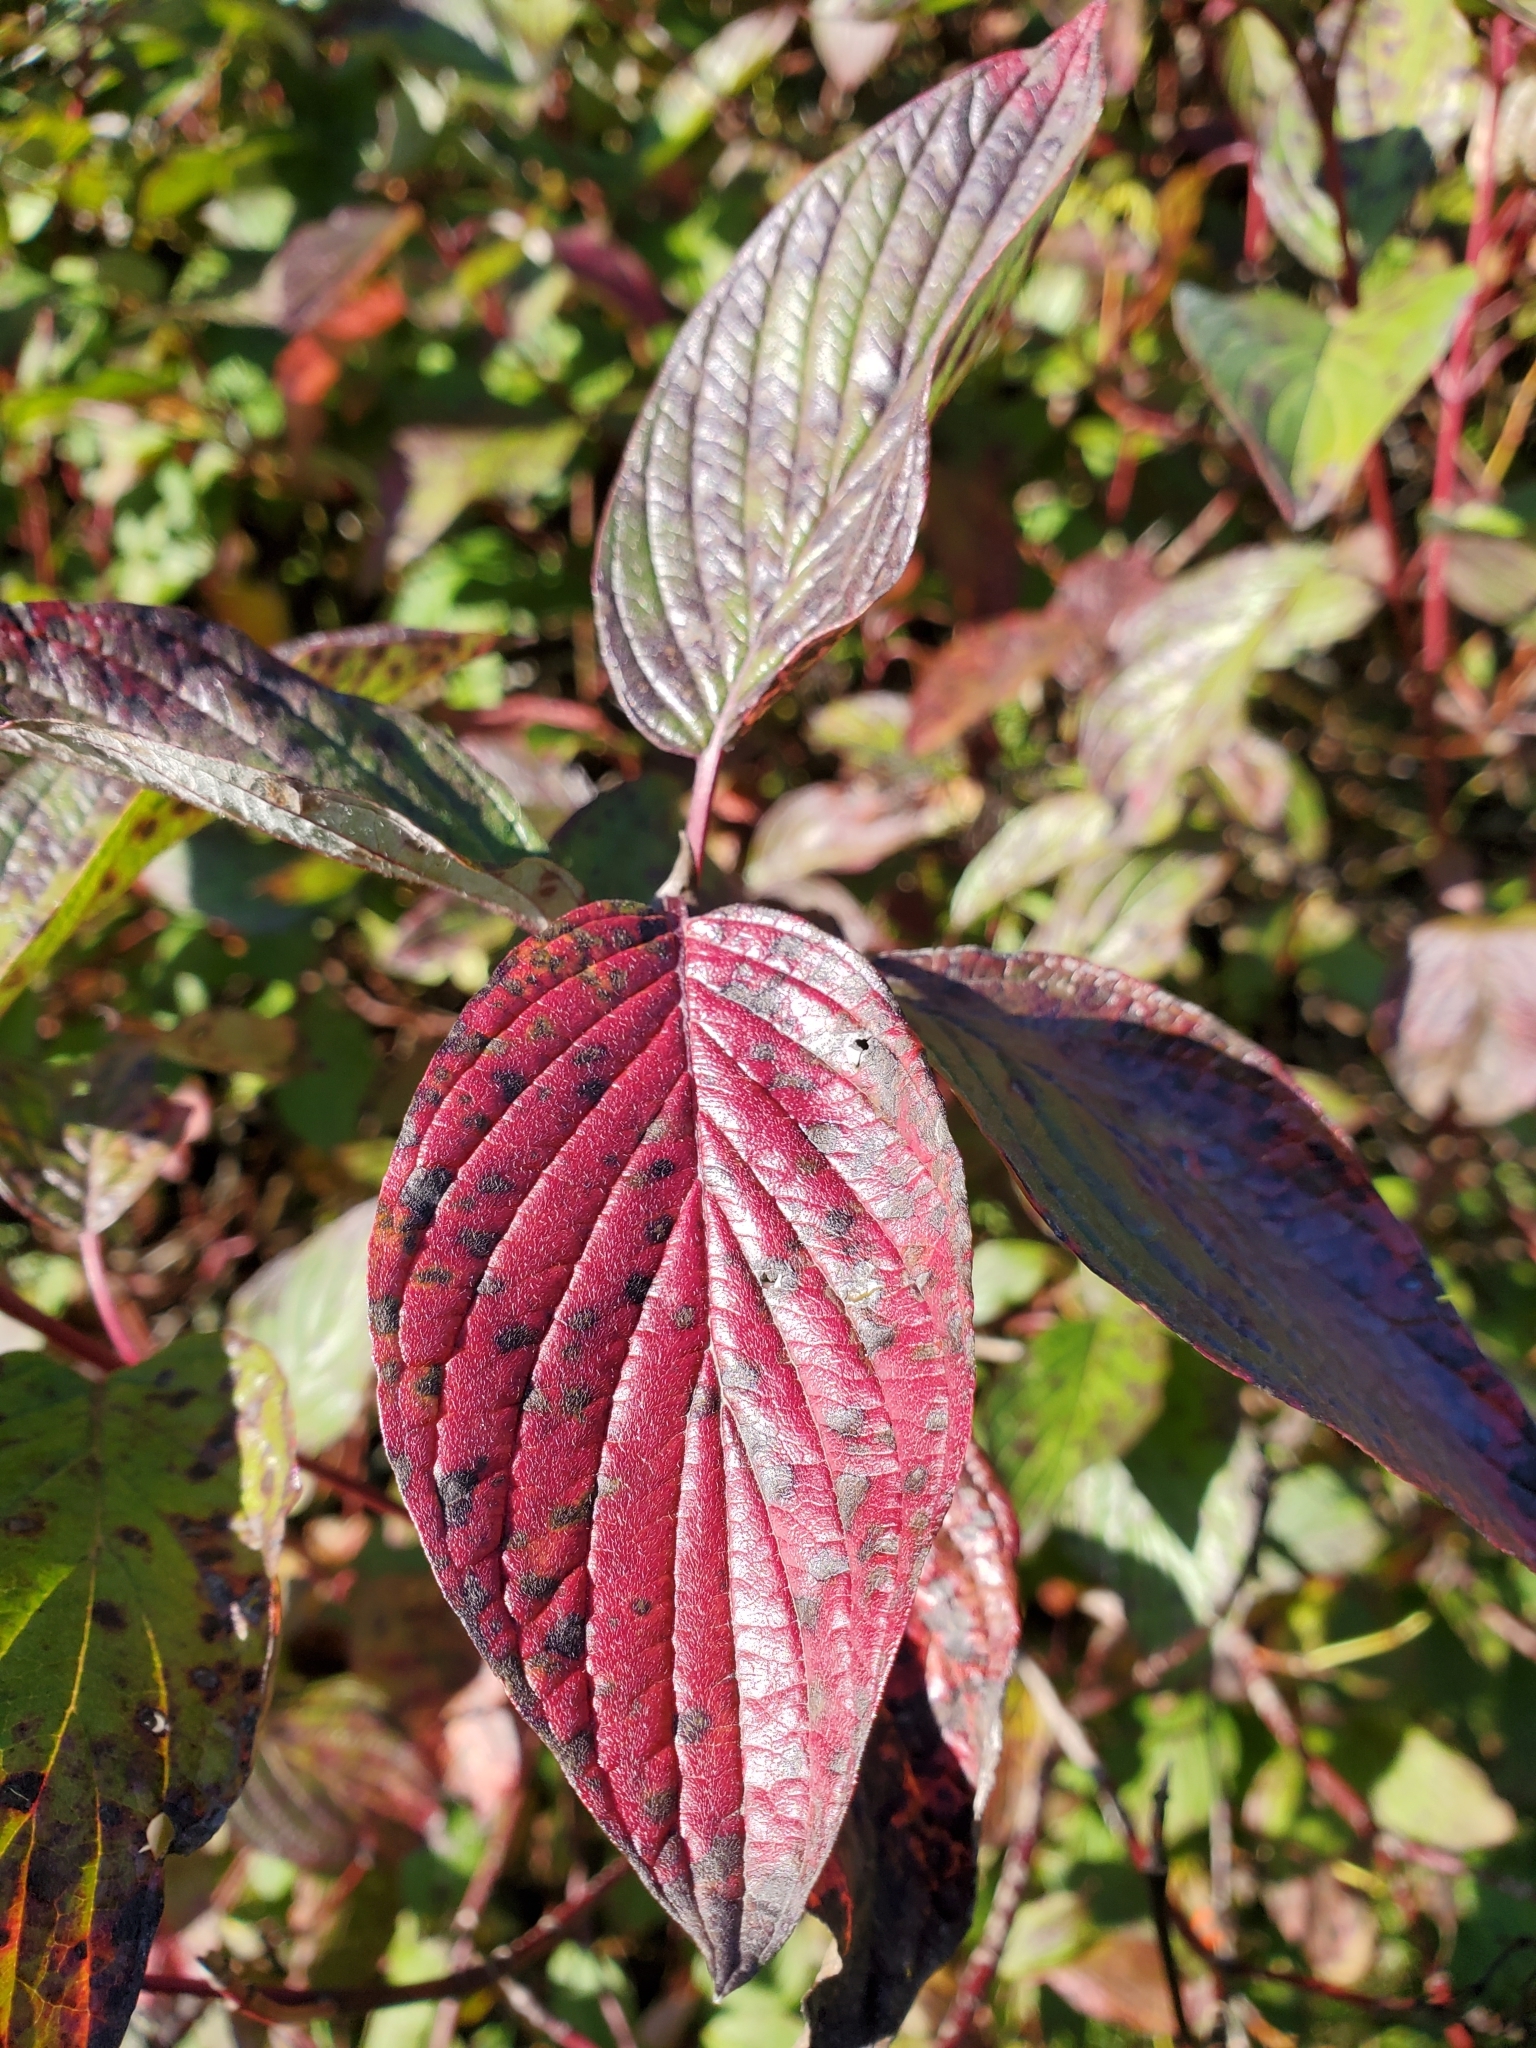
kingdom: Plantae
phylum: Tracheophyta
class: Magnoliopsida
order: Cornales
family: Cornaceae
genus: Cornus
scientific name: Cornus sericea
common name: Red-osier dogwood
